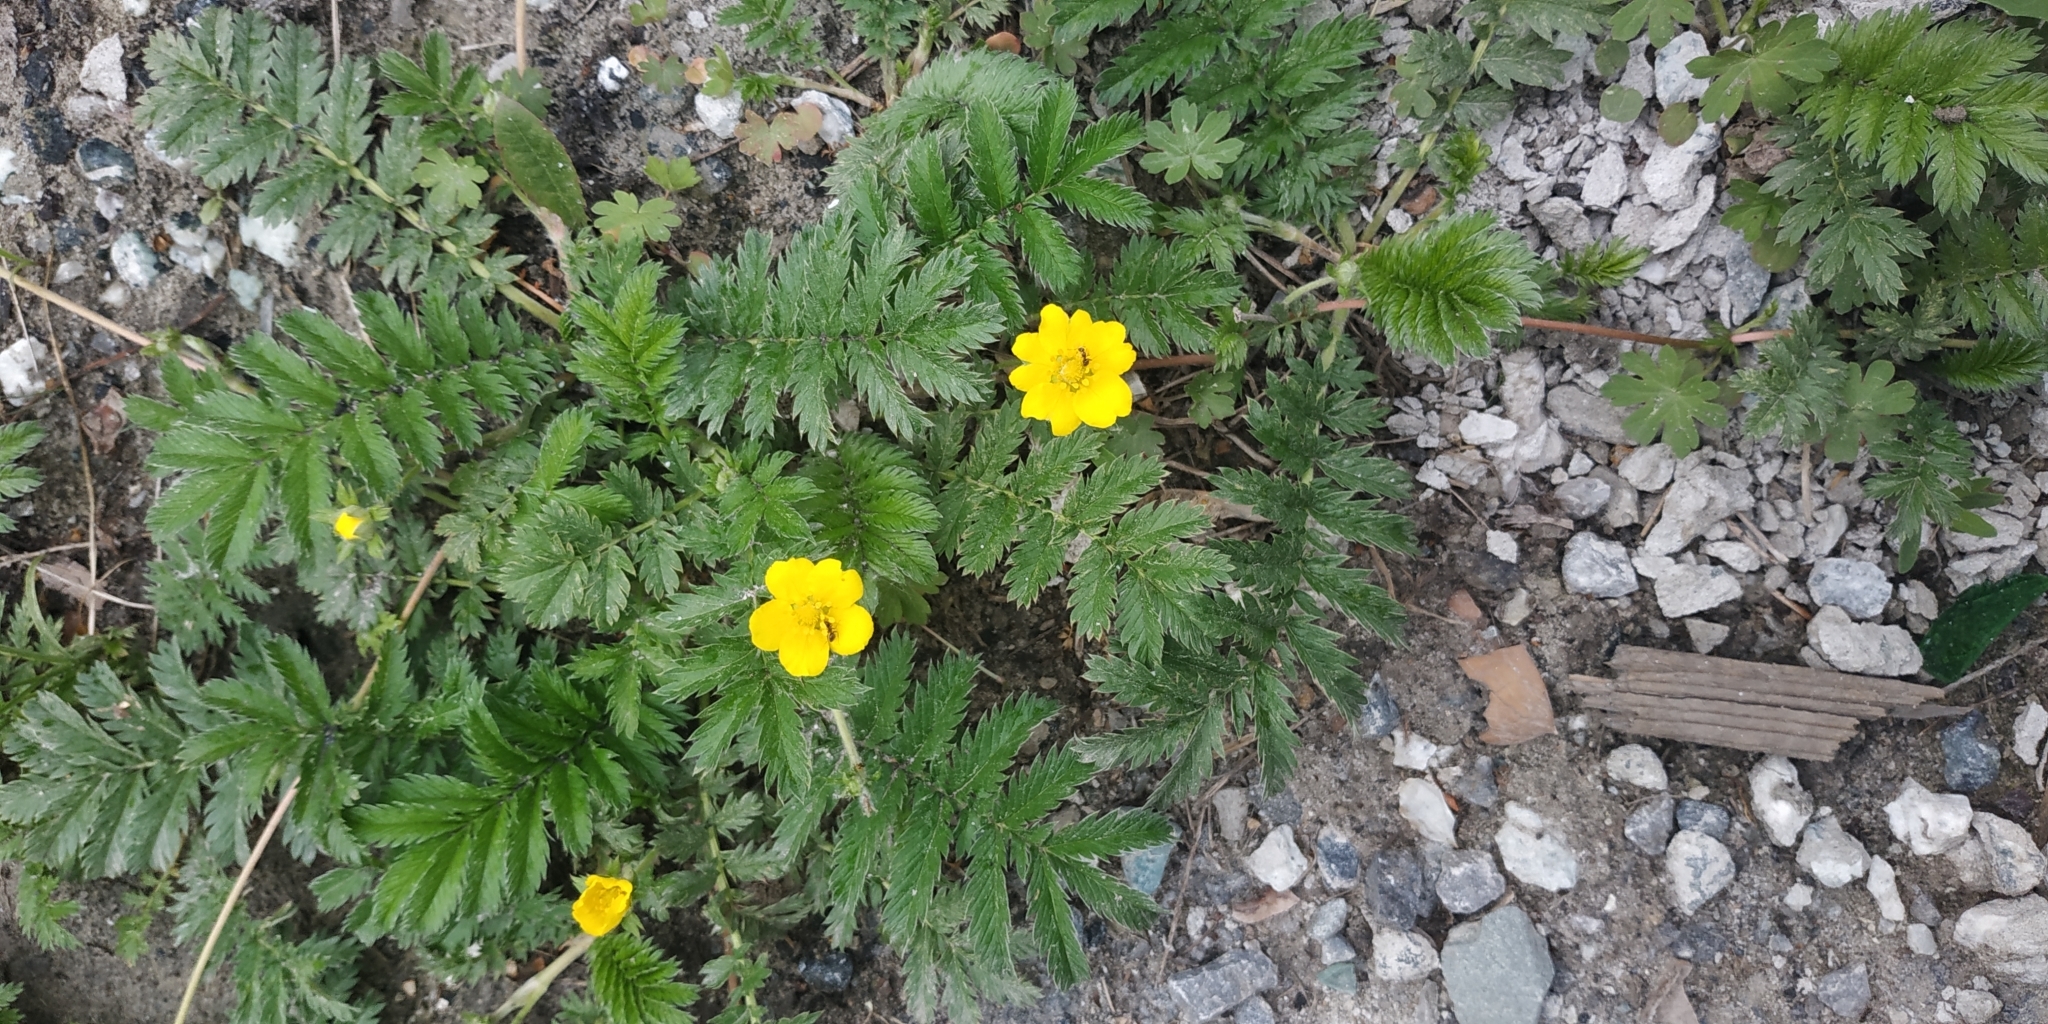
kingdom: Plantae
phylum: Tracheophyta
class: Magnoliopsida
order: Rosales
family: Rosaceae
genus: Argentina
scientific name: Argentina anserina
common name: Common silverweed
